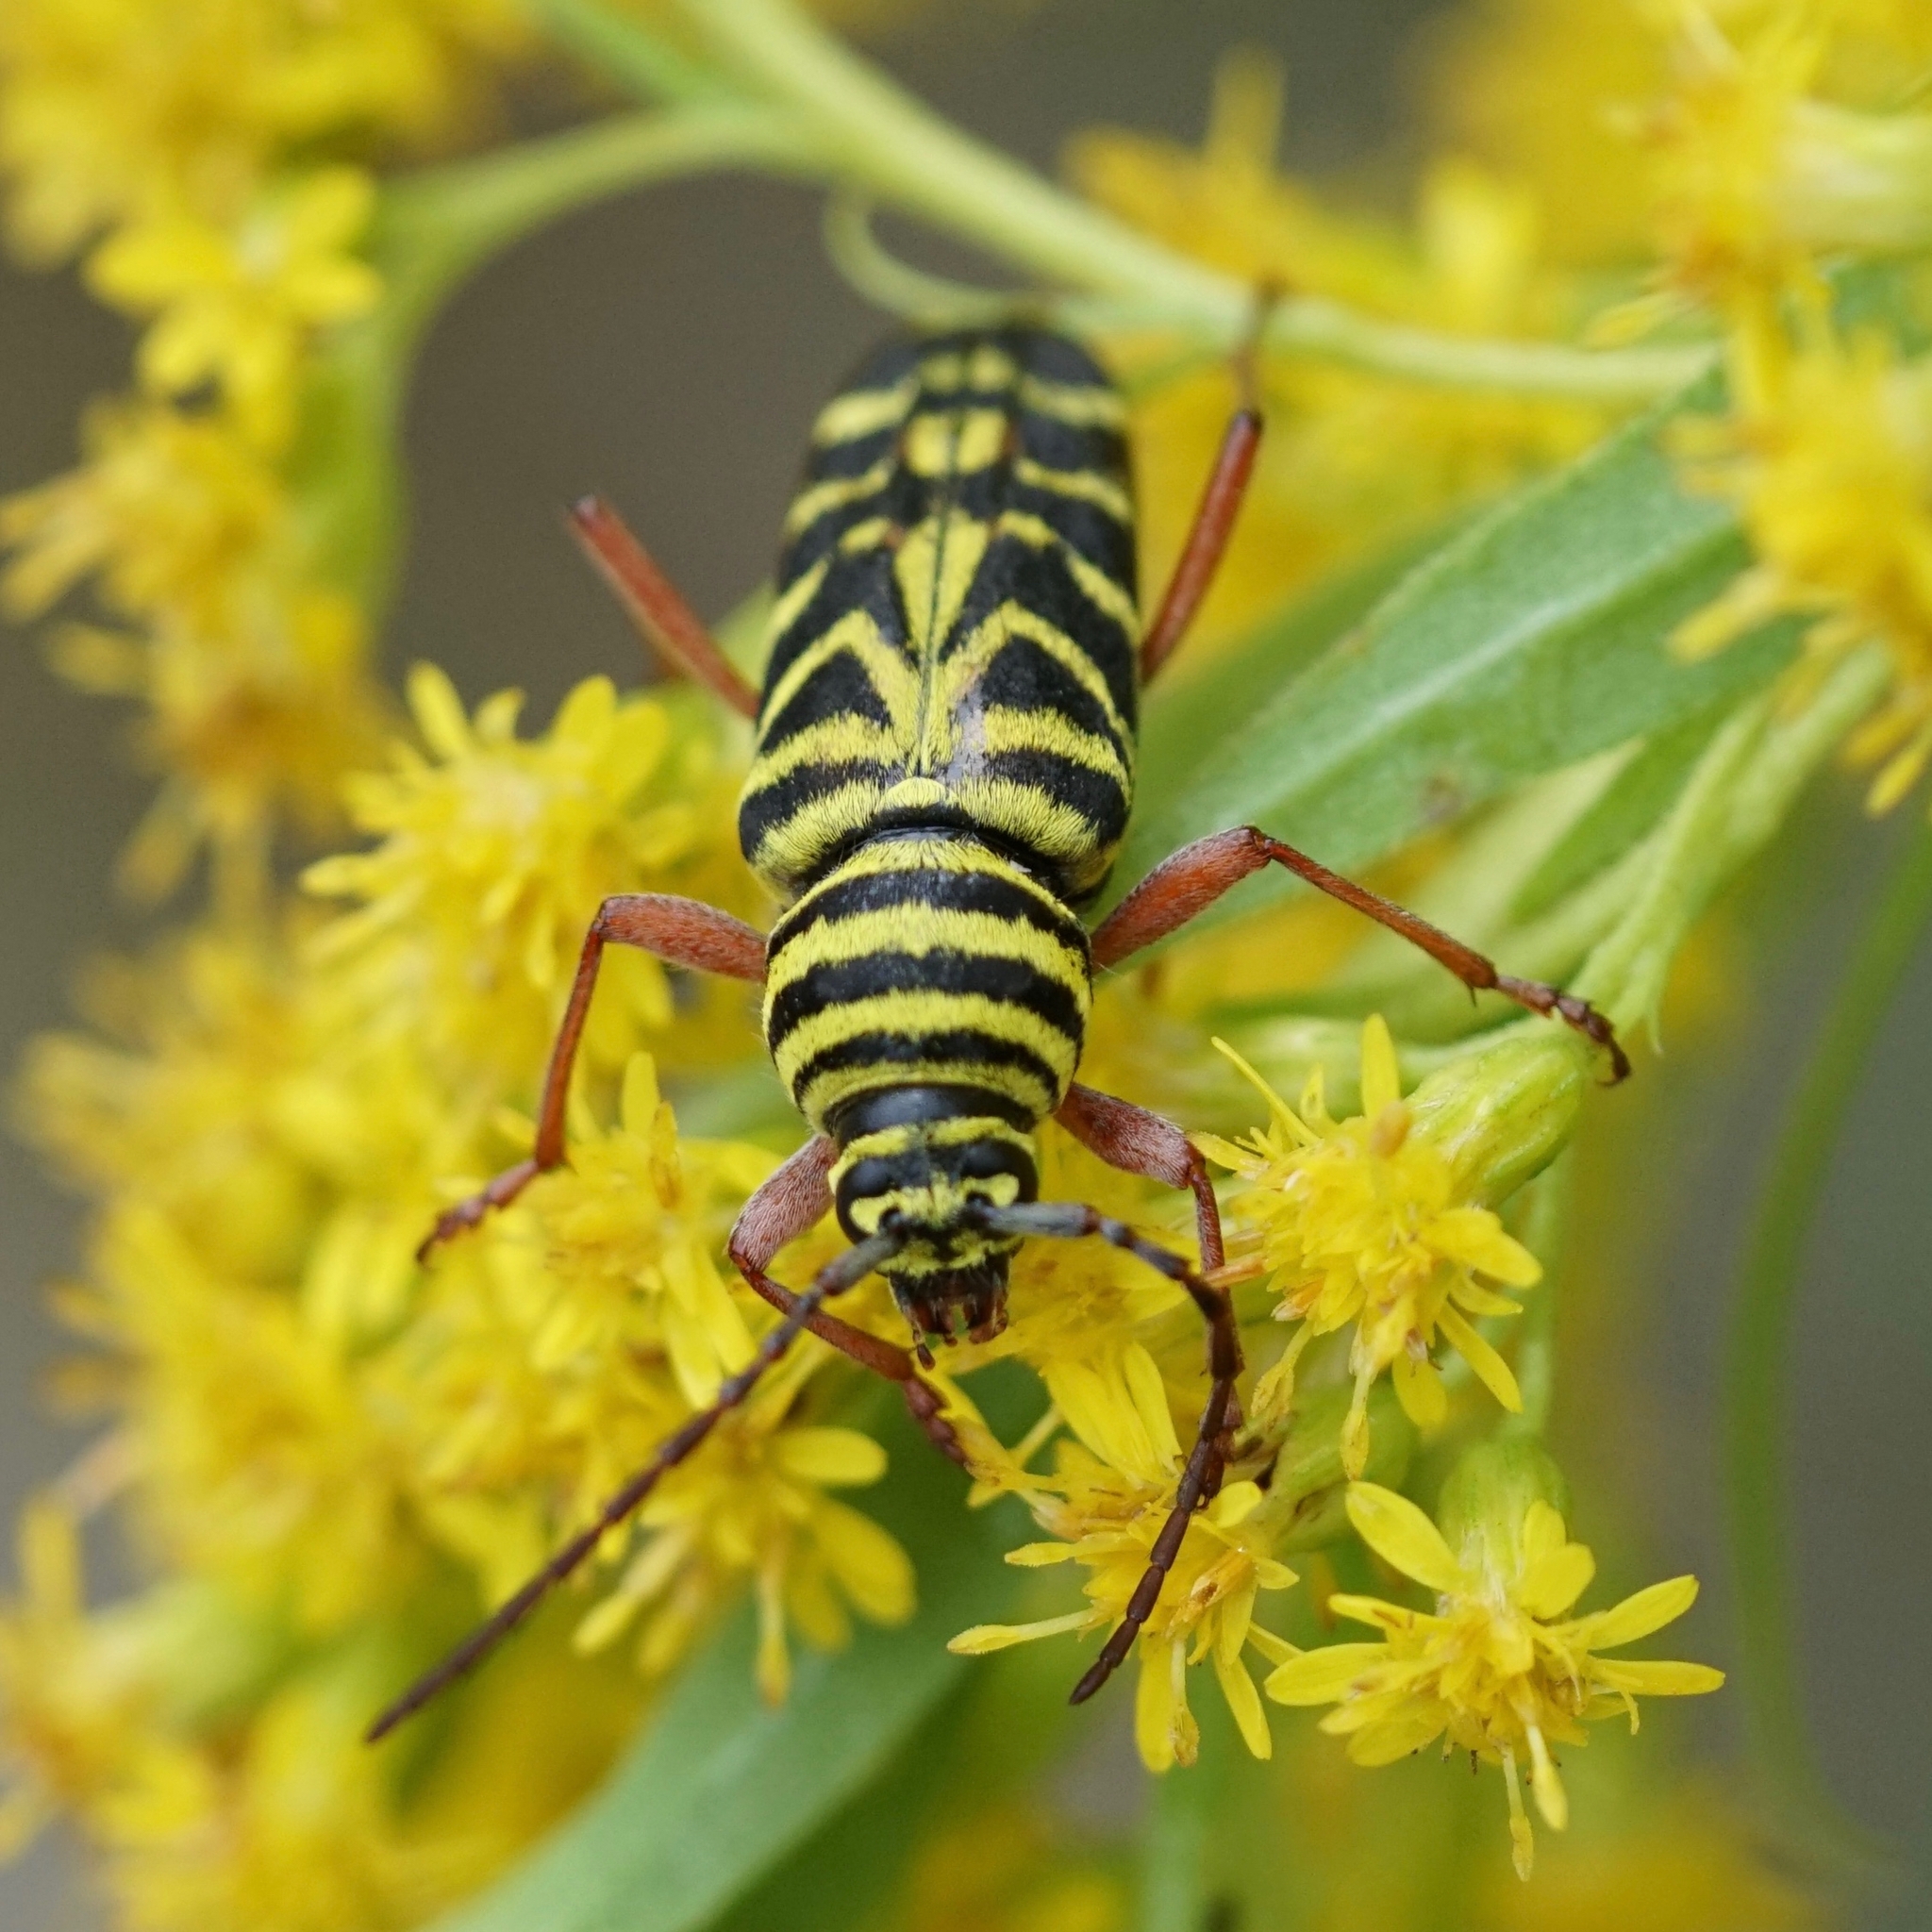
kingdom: Animalia
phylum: Arthropoda
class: Insecta
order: Coleoptera
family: Cerambycidae
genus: Megacyllene
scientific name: Megacyllene robiniae
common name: Locust borer
